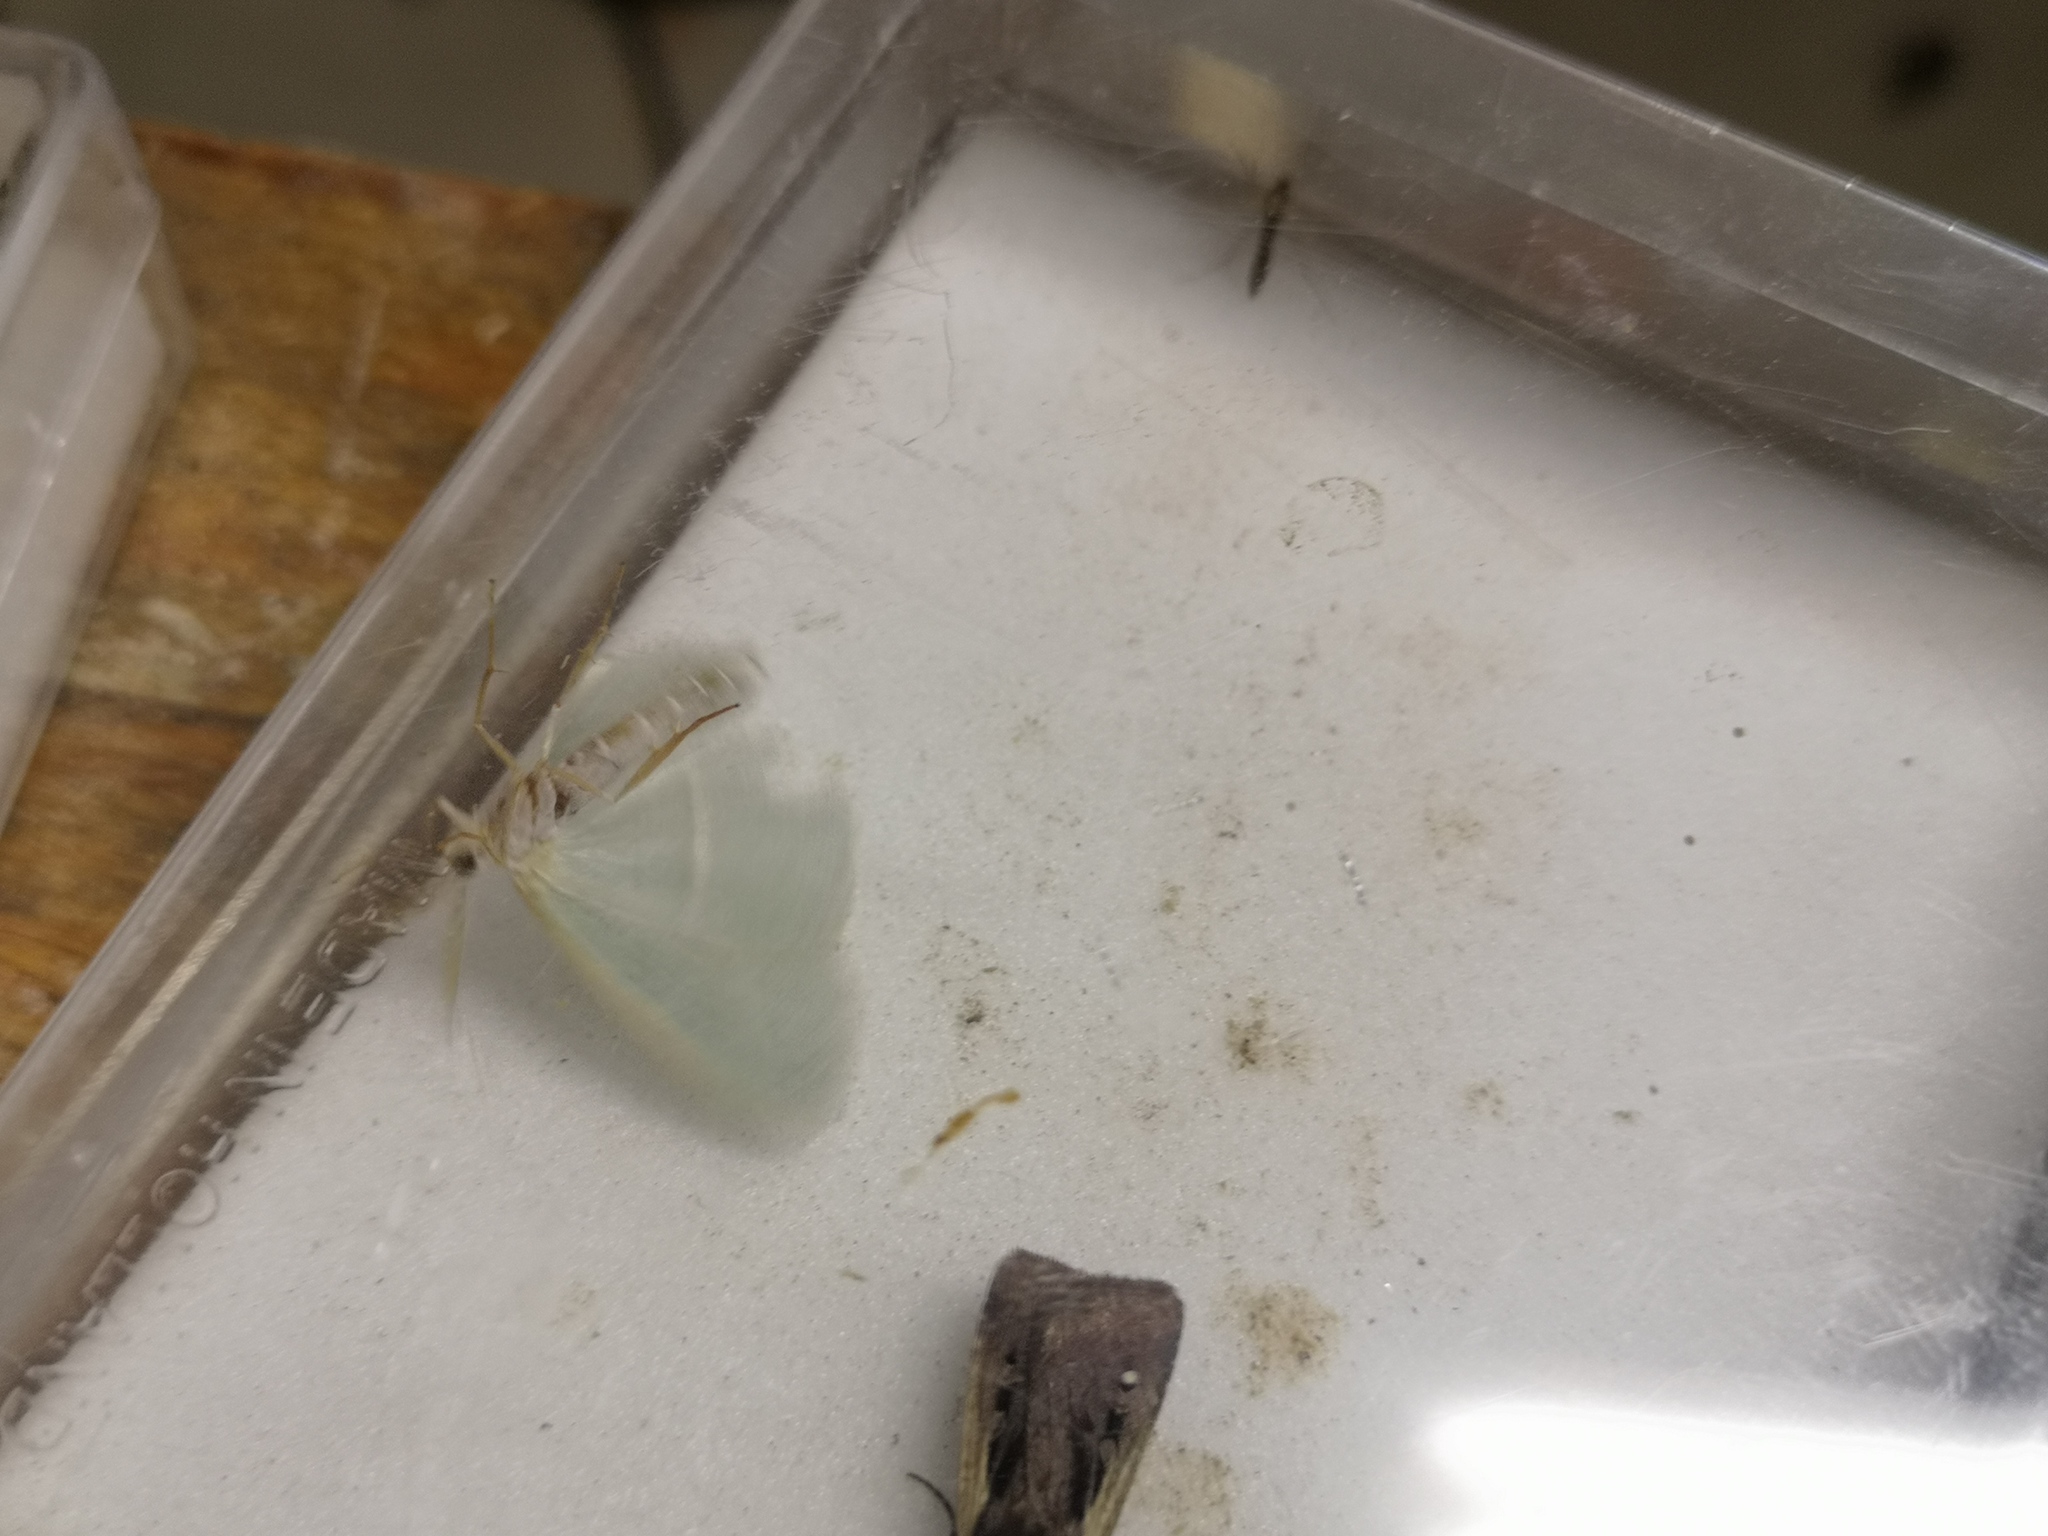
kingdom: Animalia
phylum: Arthropoda
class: Insecta
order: Lepidoptera
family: Geometridae
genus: Campaea
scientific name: Campaea margaritaria
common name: Light emerald
